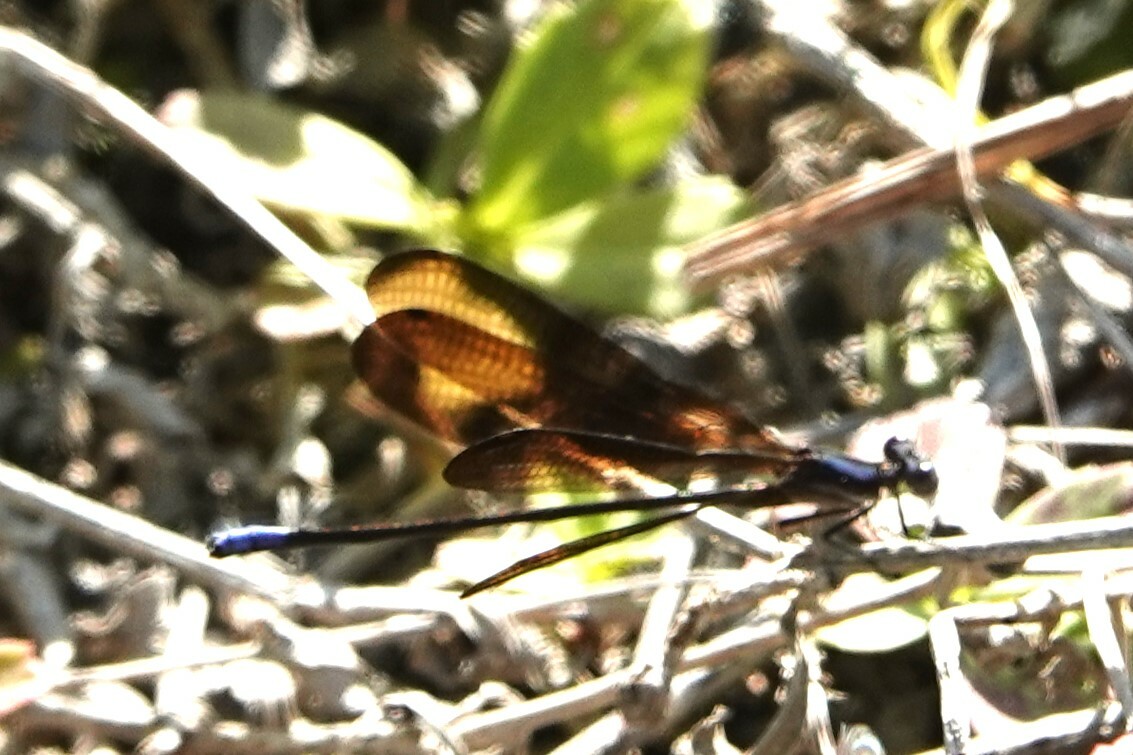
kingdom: Animalia
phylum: Arthropoda
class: Insecta
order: Odonata
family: Coenagrionidae
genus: Argia
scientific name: Argia fumipennis
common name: Variable dancer
